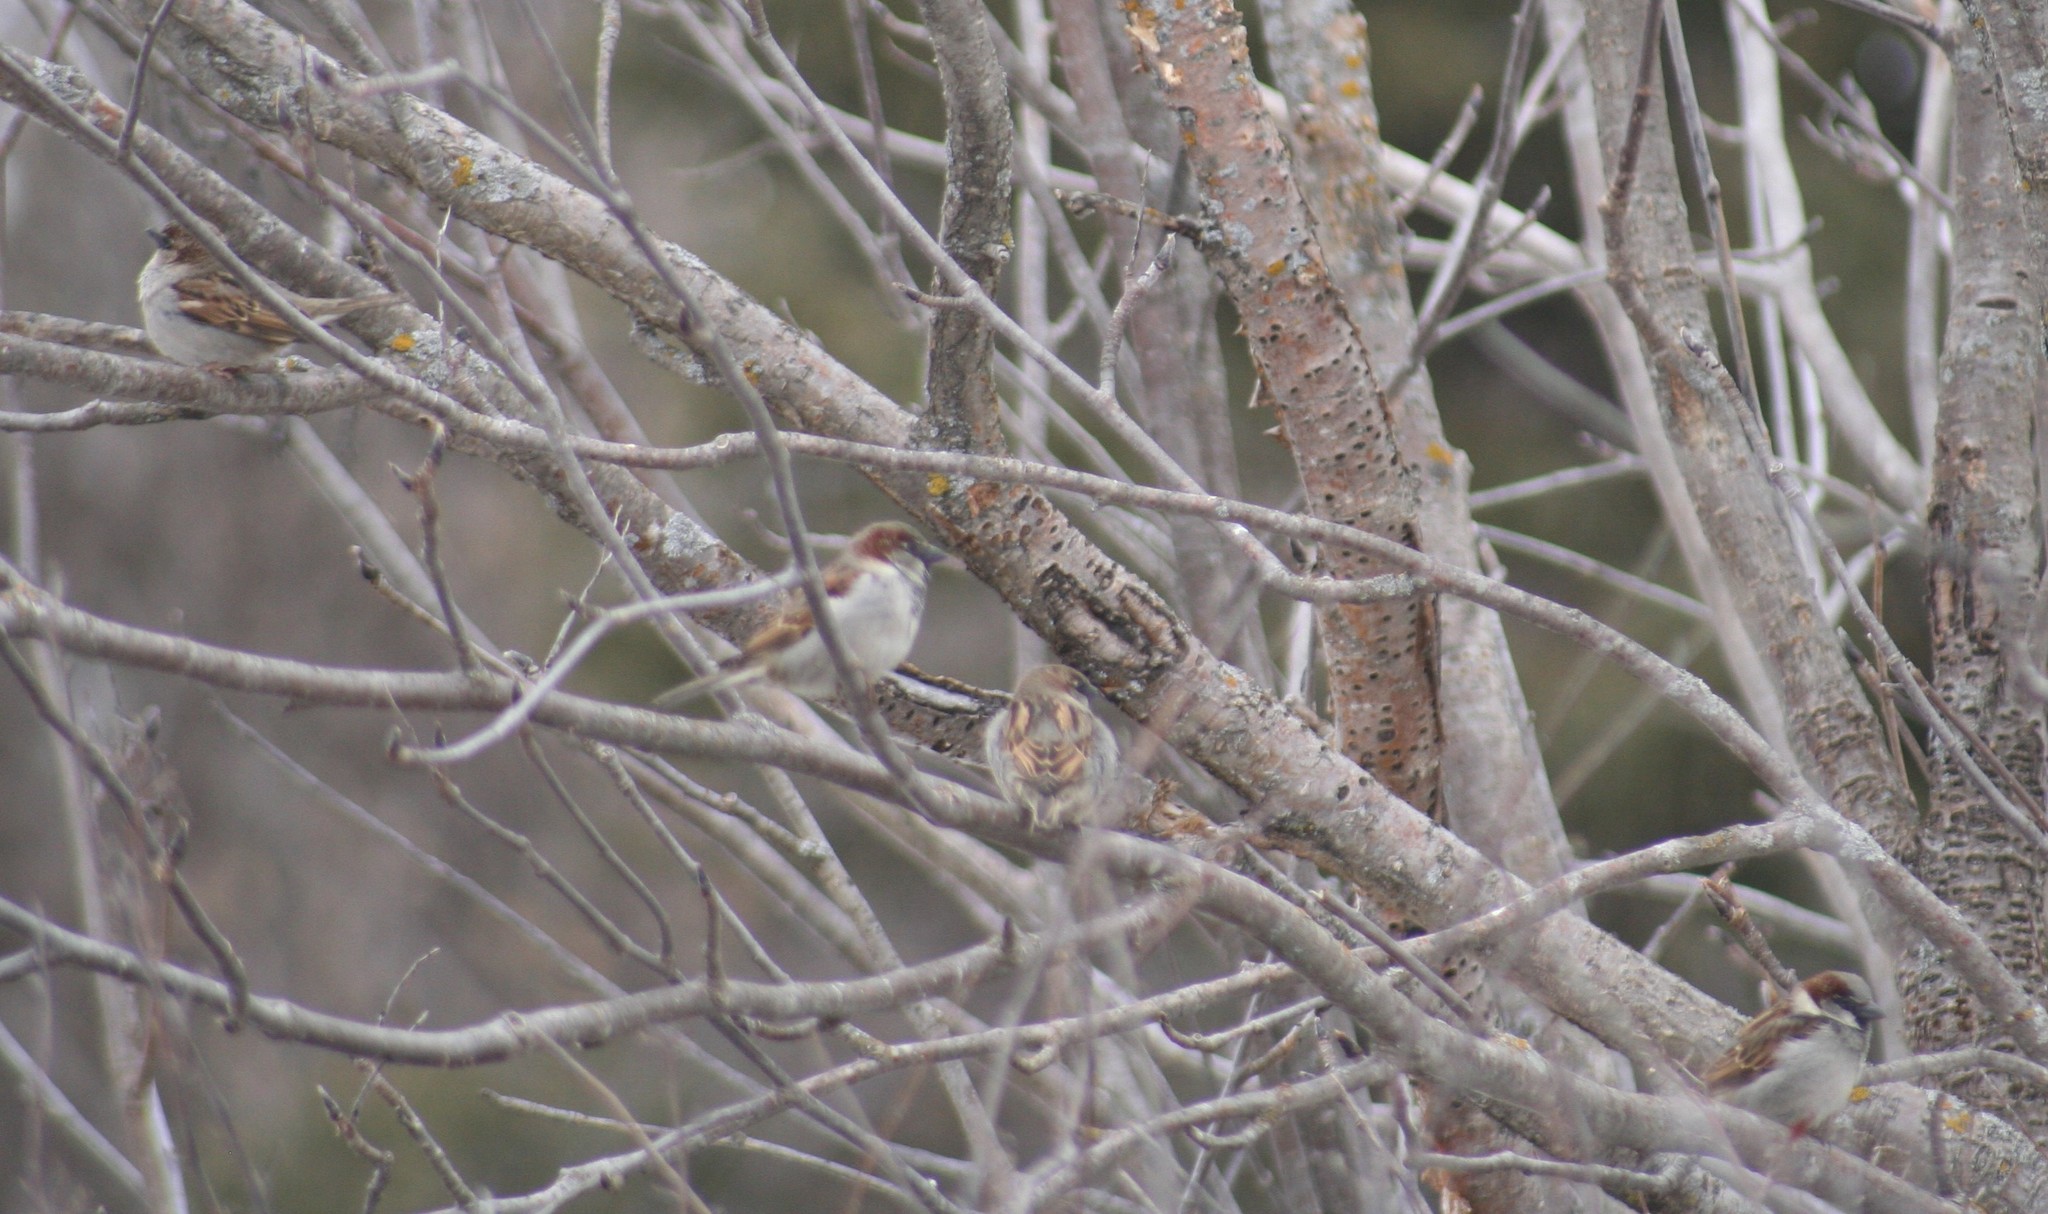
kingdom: Animalia
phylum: Chordata
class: Aves
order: Passeriformes
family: Passeridae
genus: Passer
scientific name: Passer domesticus
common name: House sparrow
